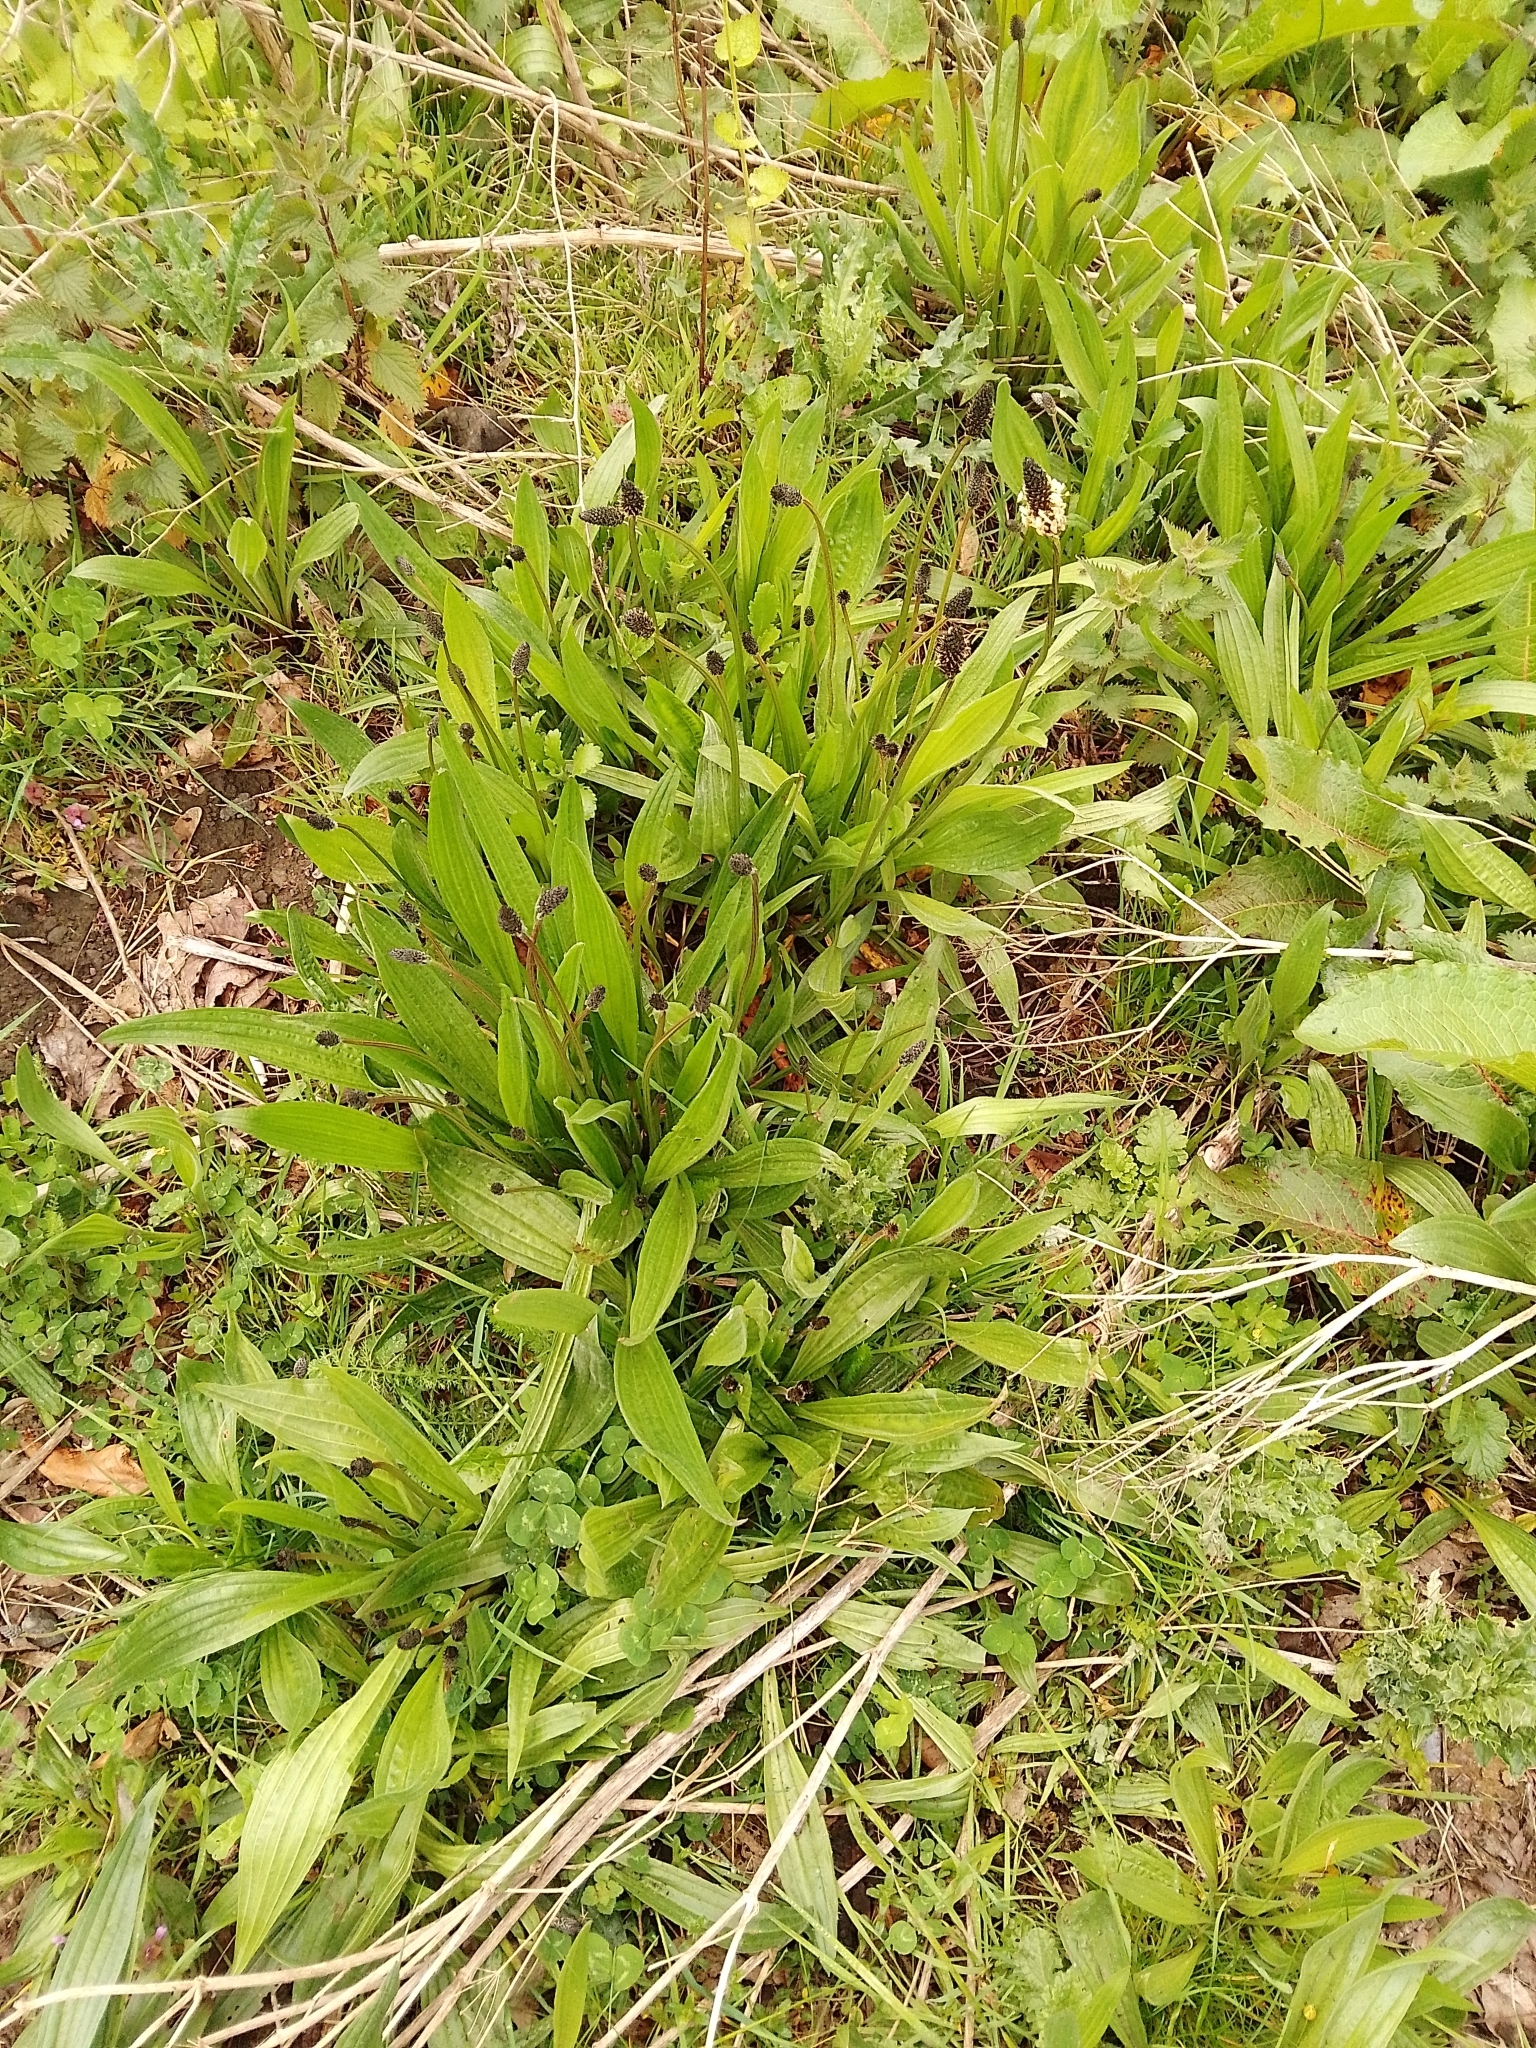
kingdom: Plantae
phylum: Tracheophyta
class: Magnoliopsida
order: Lamiales
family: Plantaginaceae
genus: Plantago
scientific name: Plantago lanceolata
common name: Ribwort plantain
